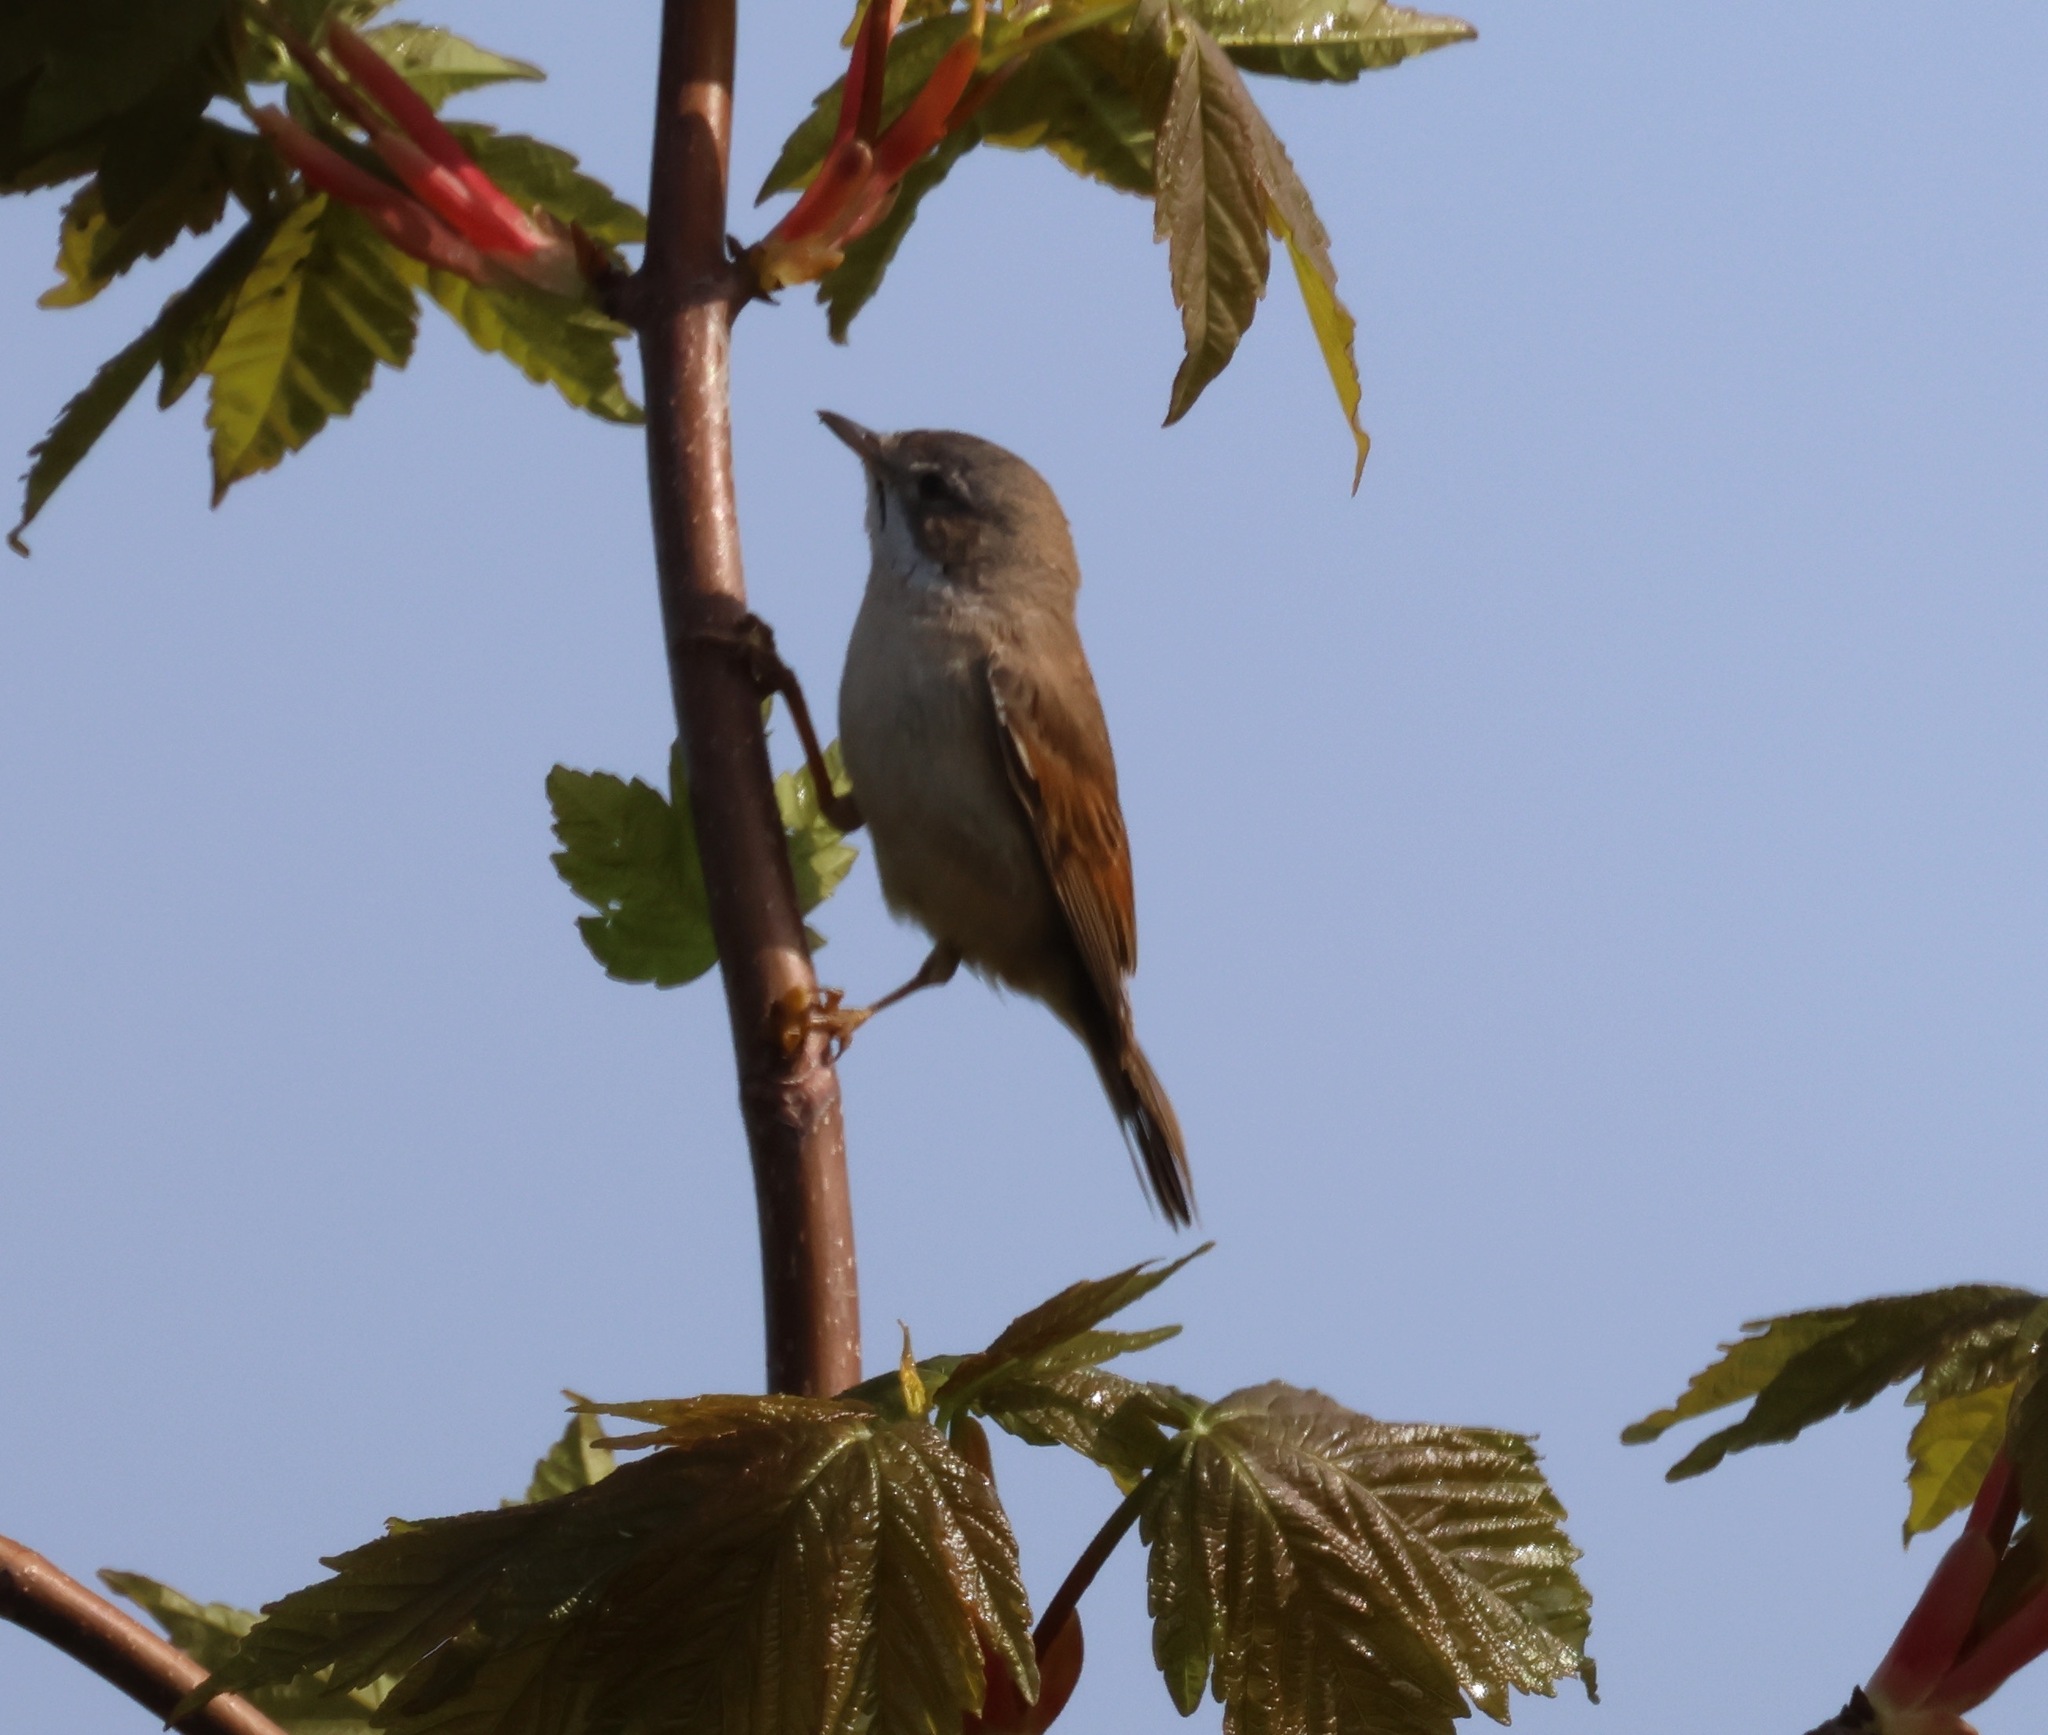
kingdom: Animalia
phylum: Chordata
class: Aves
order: Passeriformes
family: Sylviidae
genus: Sylvia
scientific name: Sylvia communis
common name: Common whitethroat
